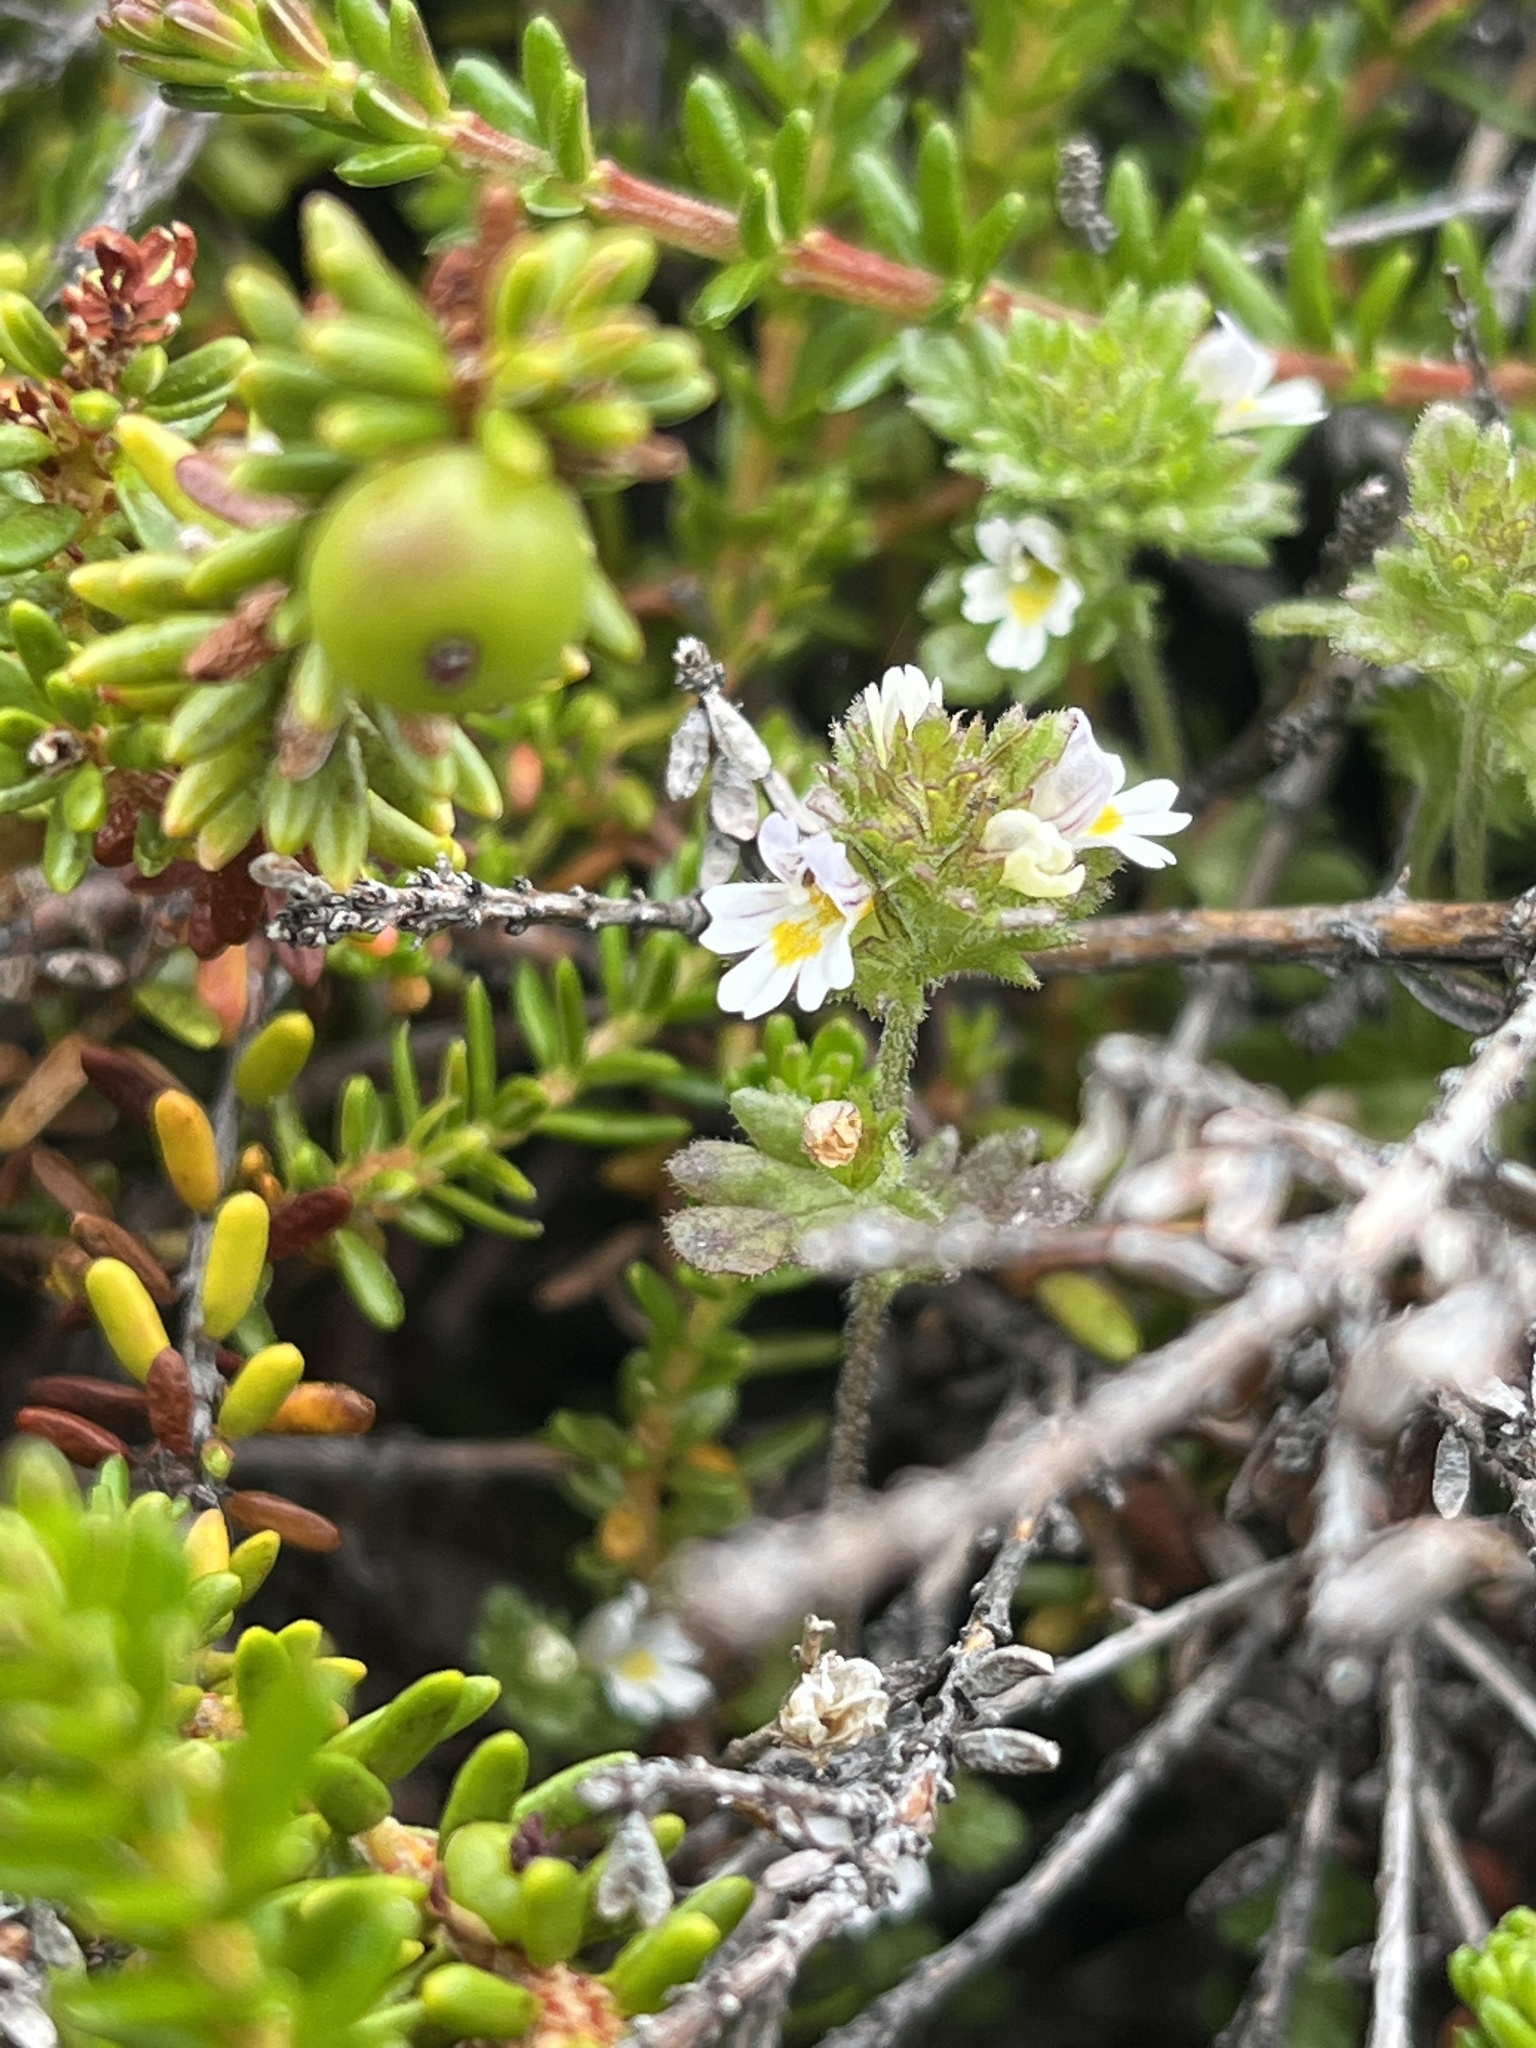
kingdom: Plantae
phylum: Tracheophyta
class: Magnoliopsida
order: Lamiales
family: Orobanchaceae
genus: Euphrasia
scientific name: Euphrasia frigida
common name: An eyebright
